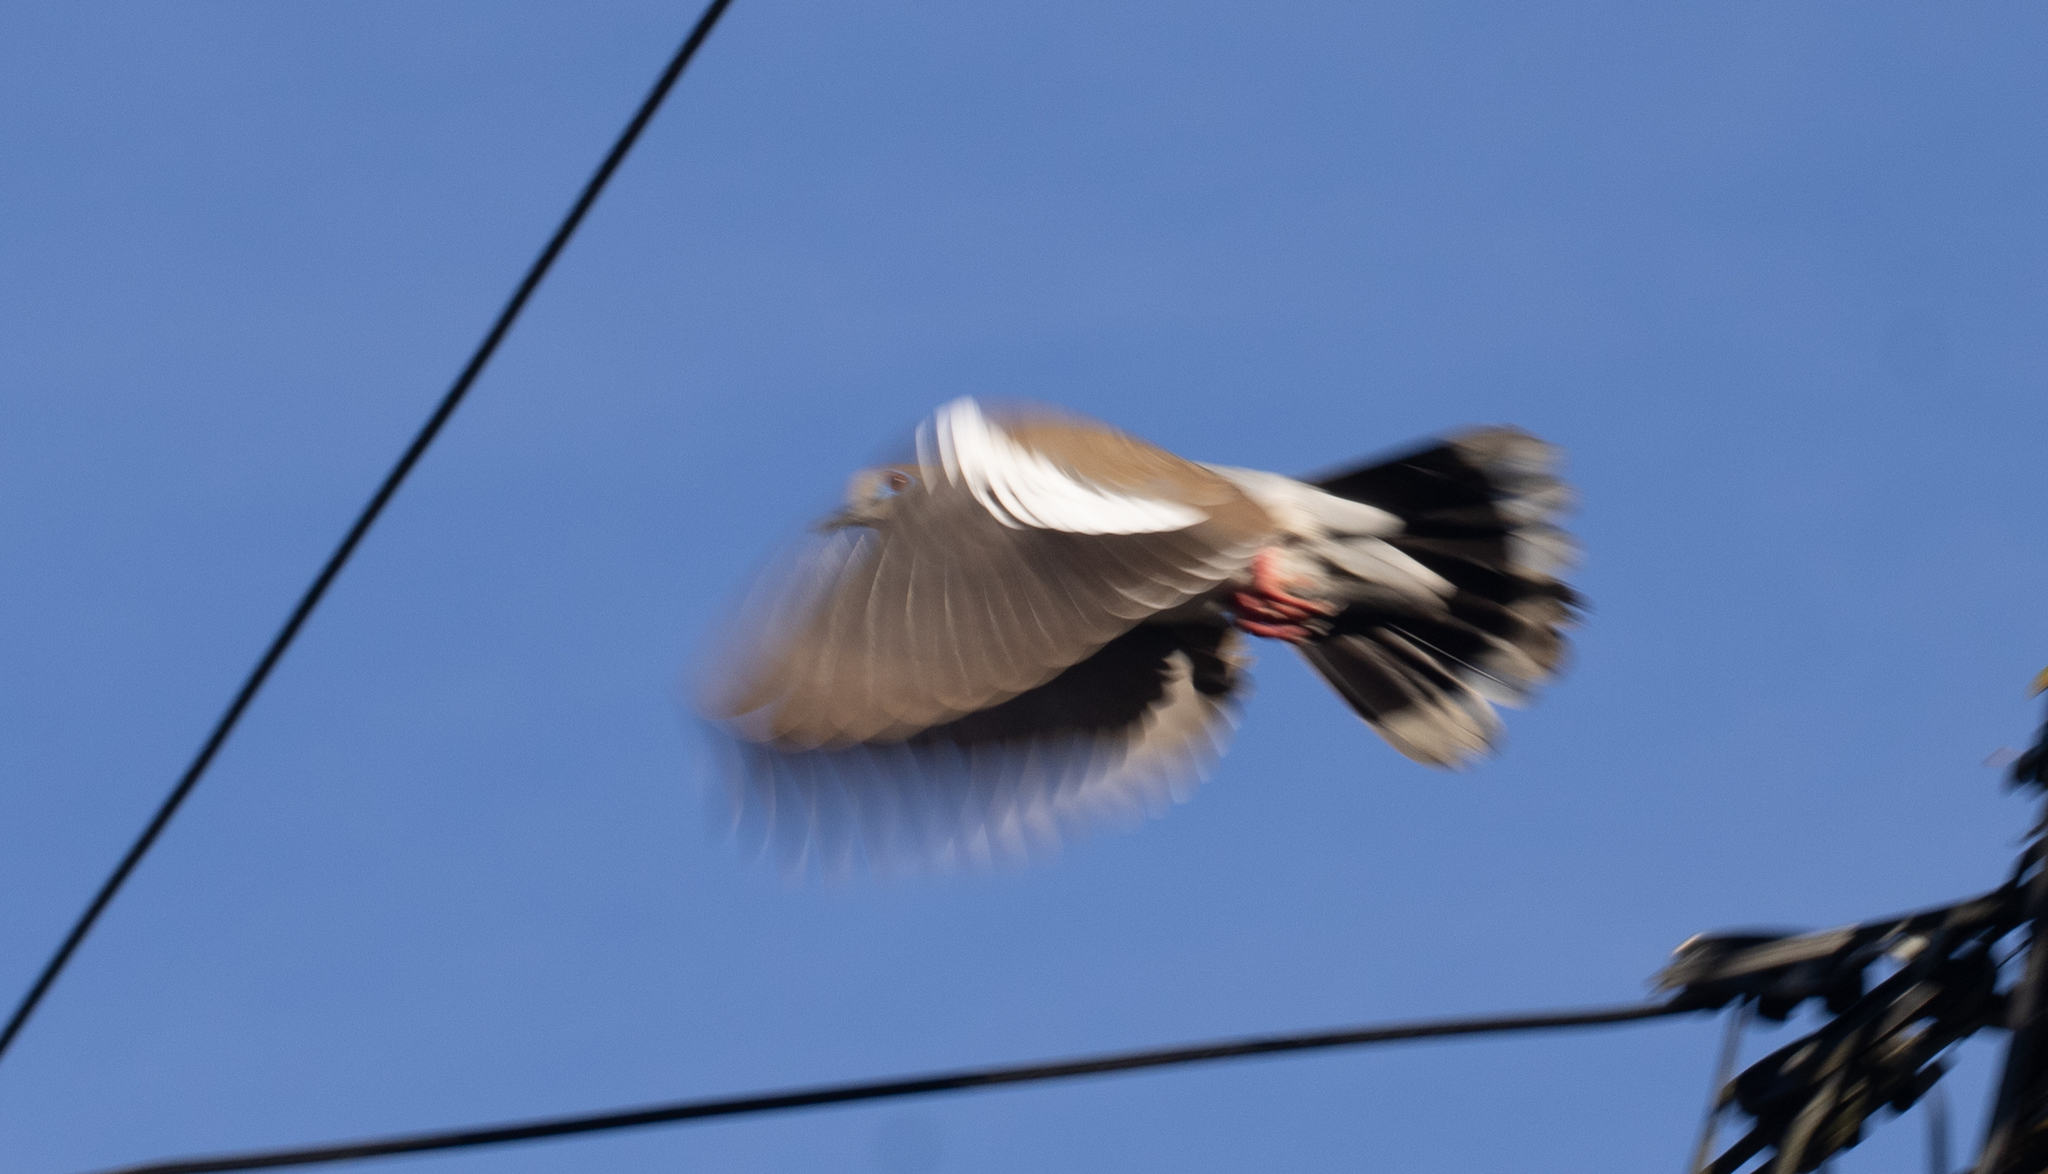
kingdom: Animalia
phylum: Chordata
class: Aves
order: Columbiformes
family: Columbidae
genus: Zenaida
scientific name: Zenaida asiatica
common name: White-winged dove
